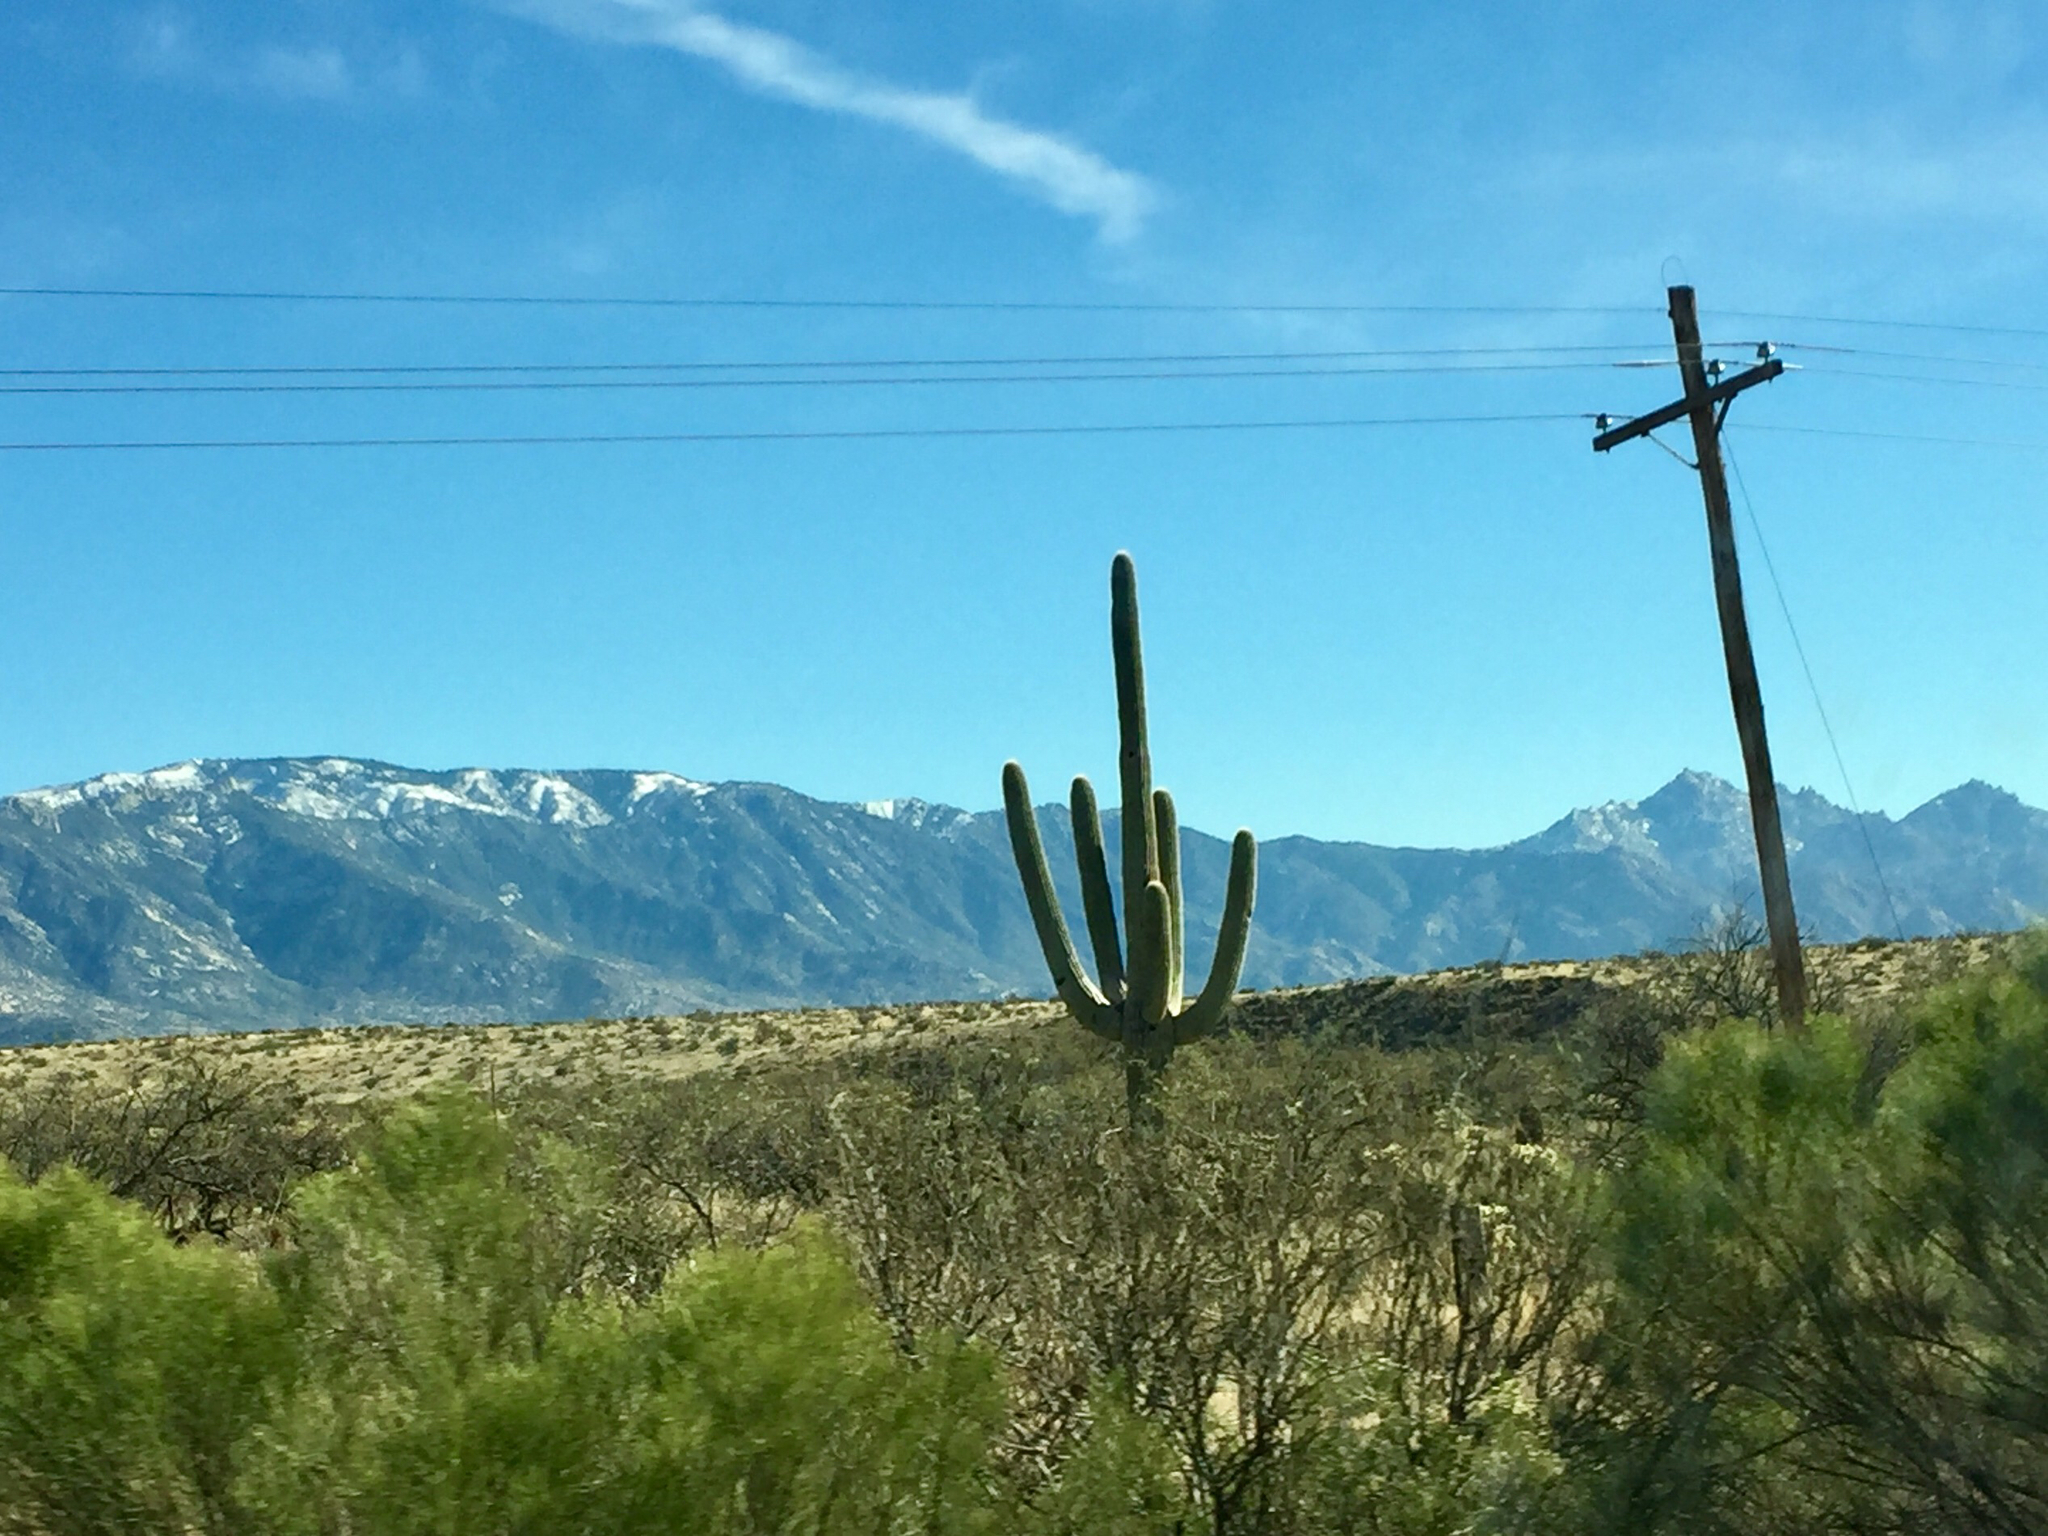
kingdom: Plantae
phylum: Tracheophyta
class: Magnoliopsida
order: Caryophyllales
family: Cactaceae
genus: Carnegiea
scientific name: Carnegiea gigantea
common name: Saguaro
